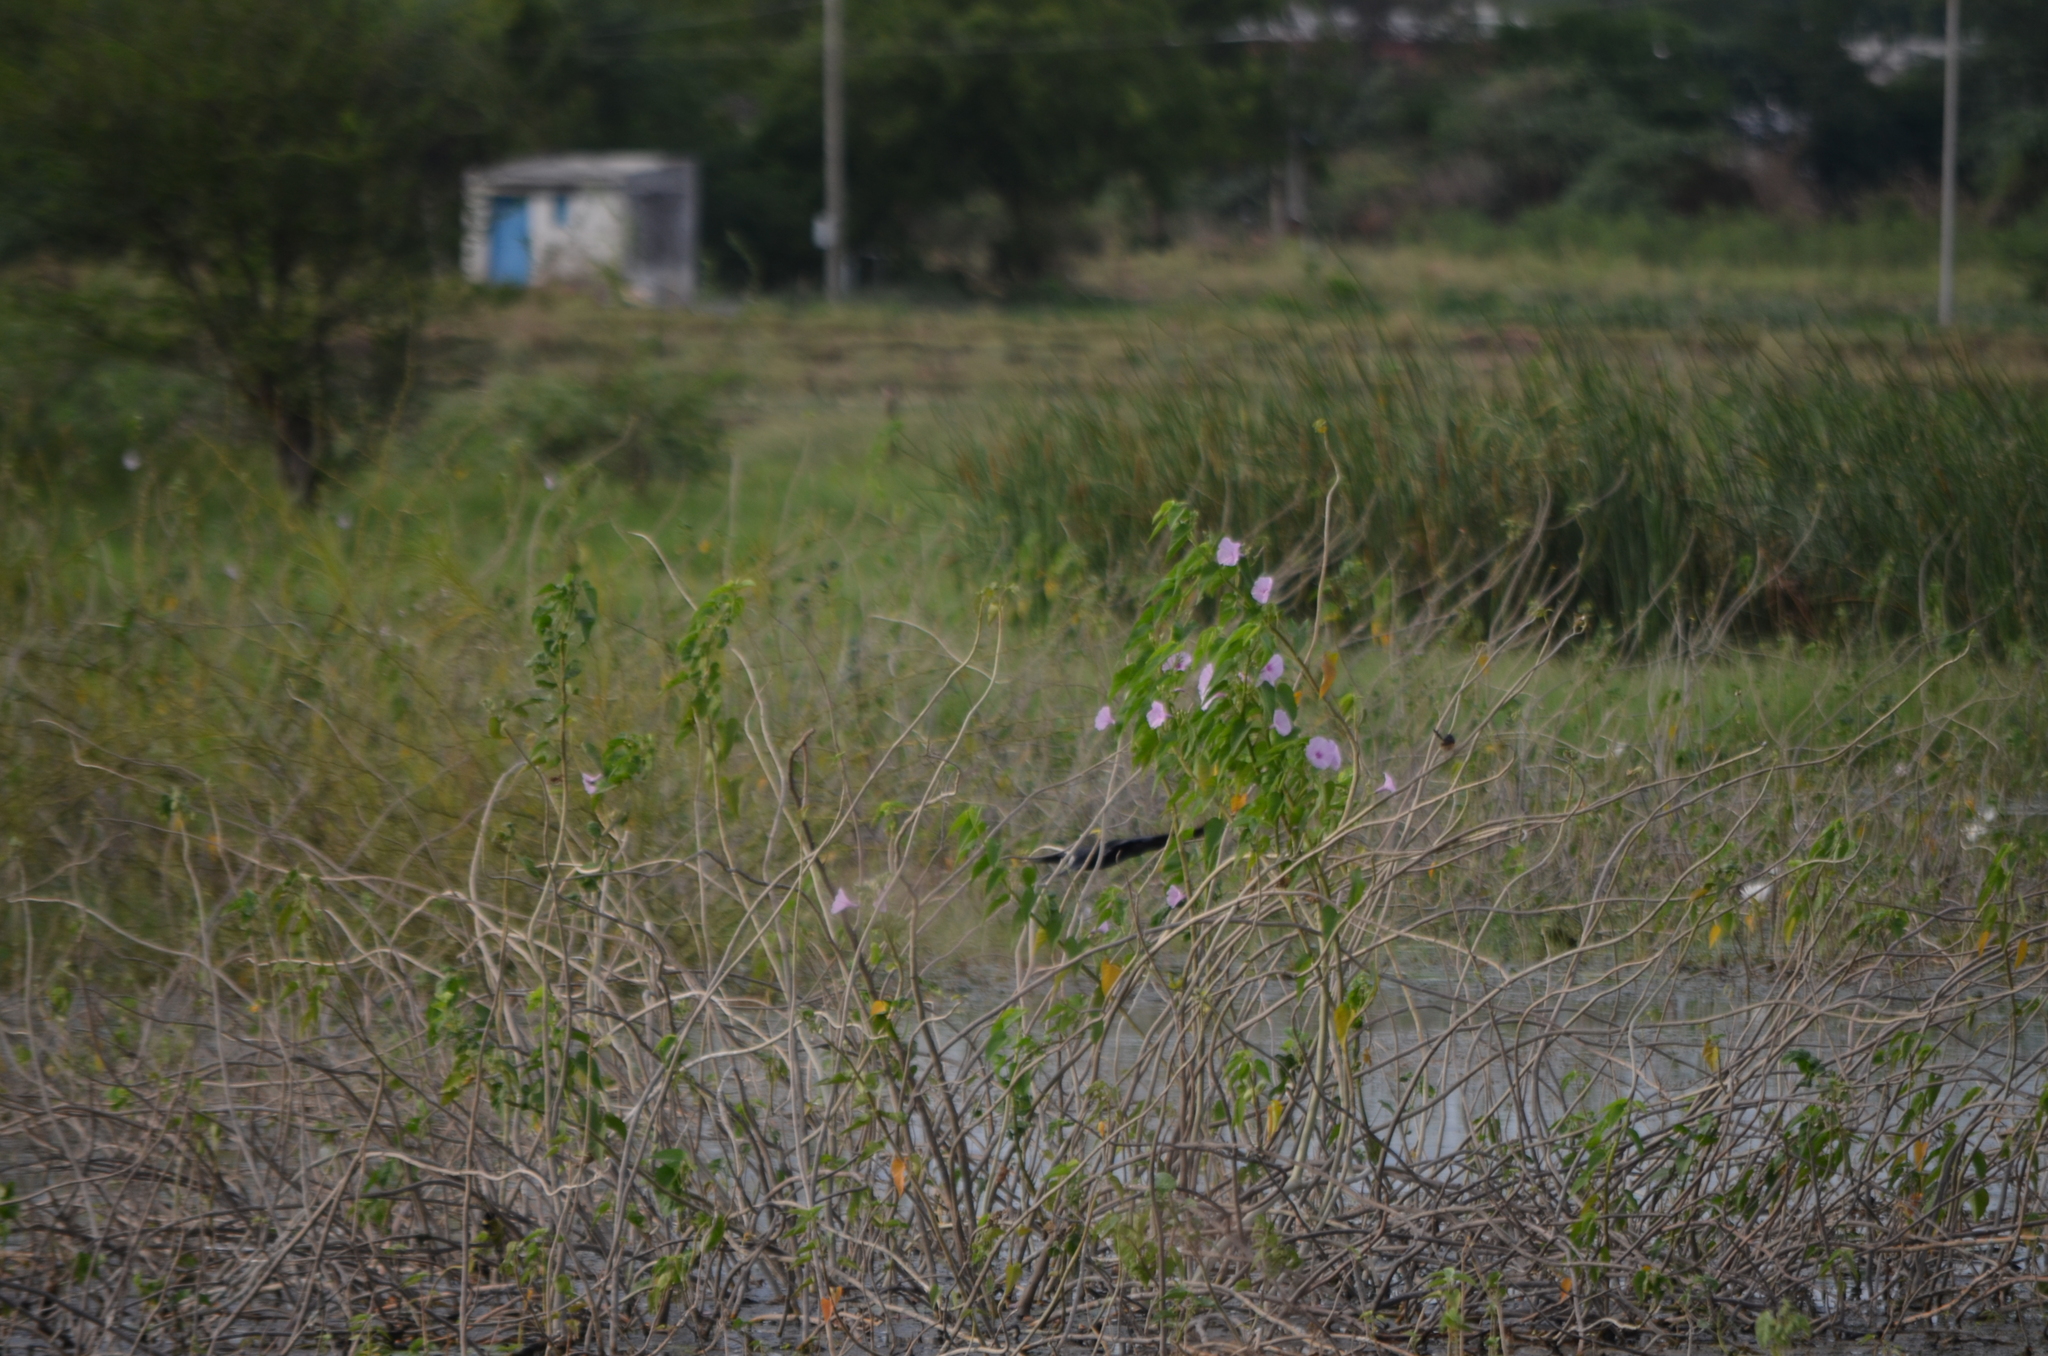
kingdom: Plantae
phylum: Tracheophyta
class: Magnoliopsida
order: Solanales
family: Convolvulaceae
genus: Ipomoea
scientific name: Ipomoea carnea
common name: Morning-glory
